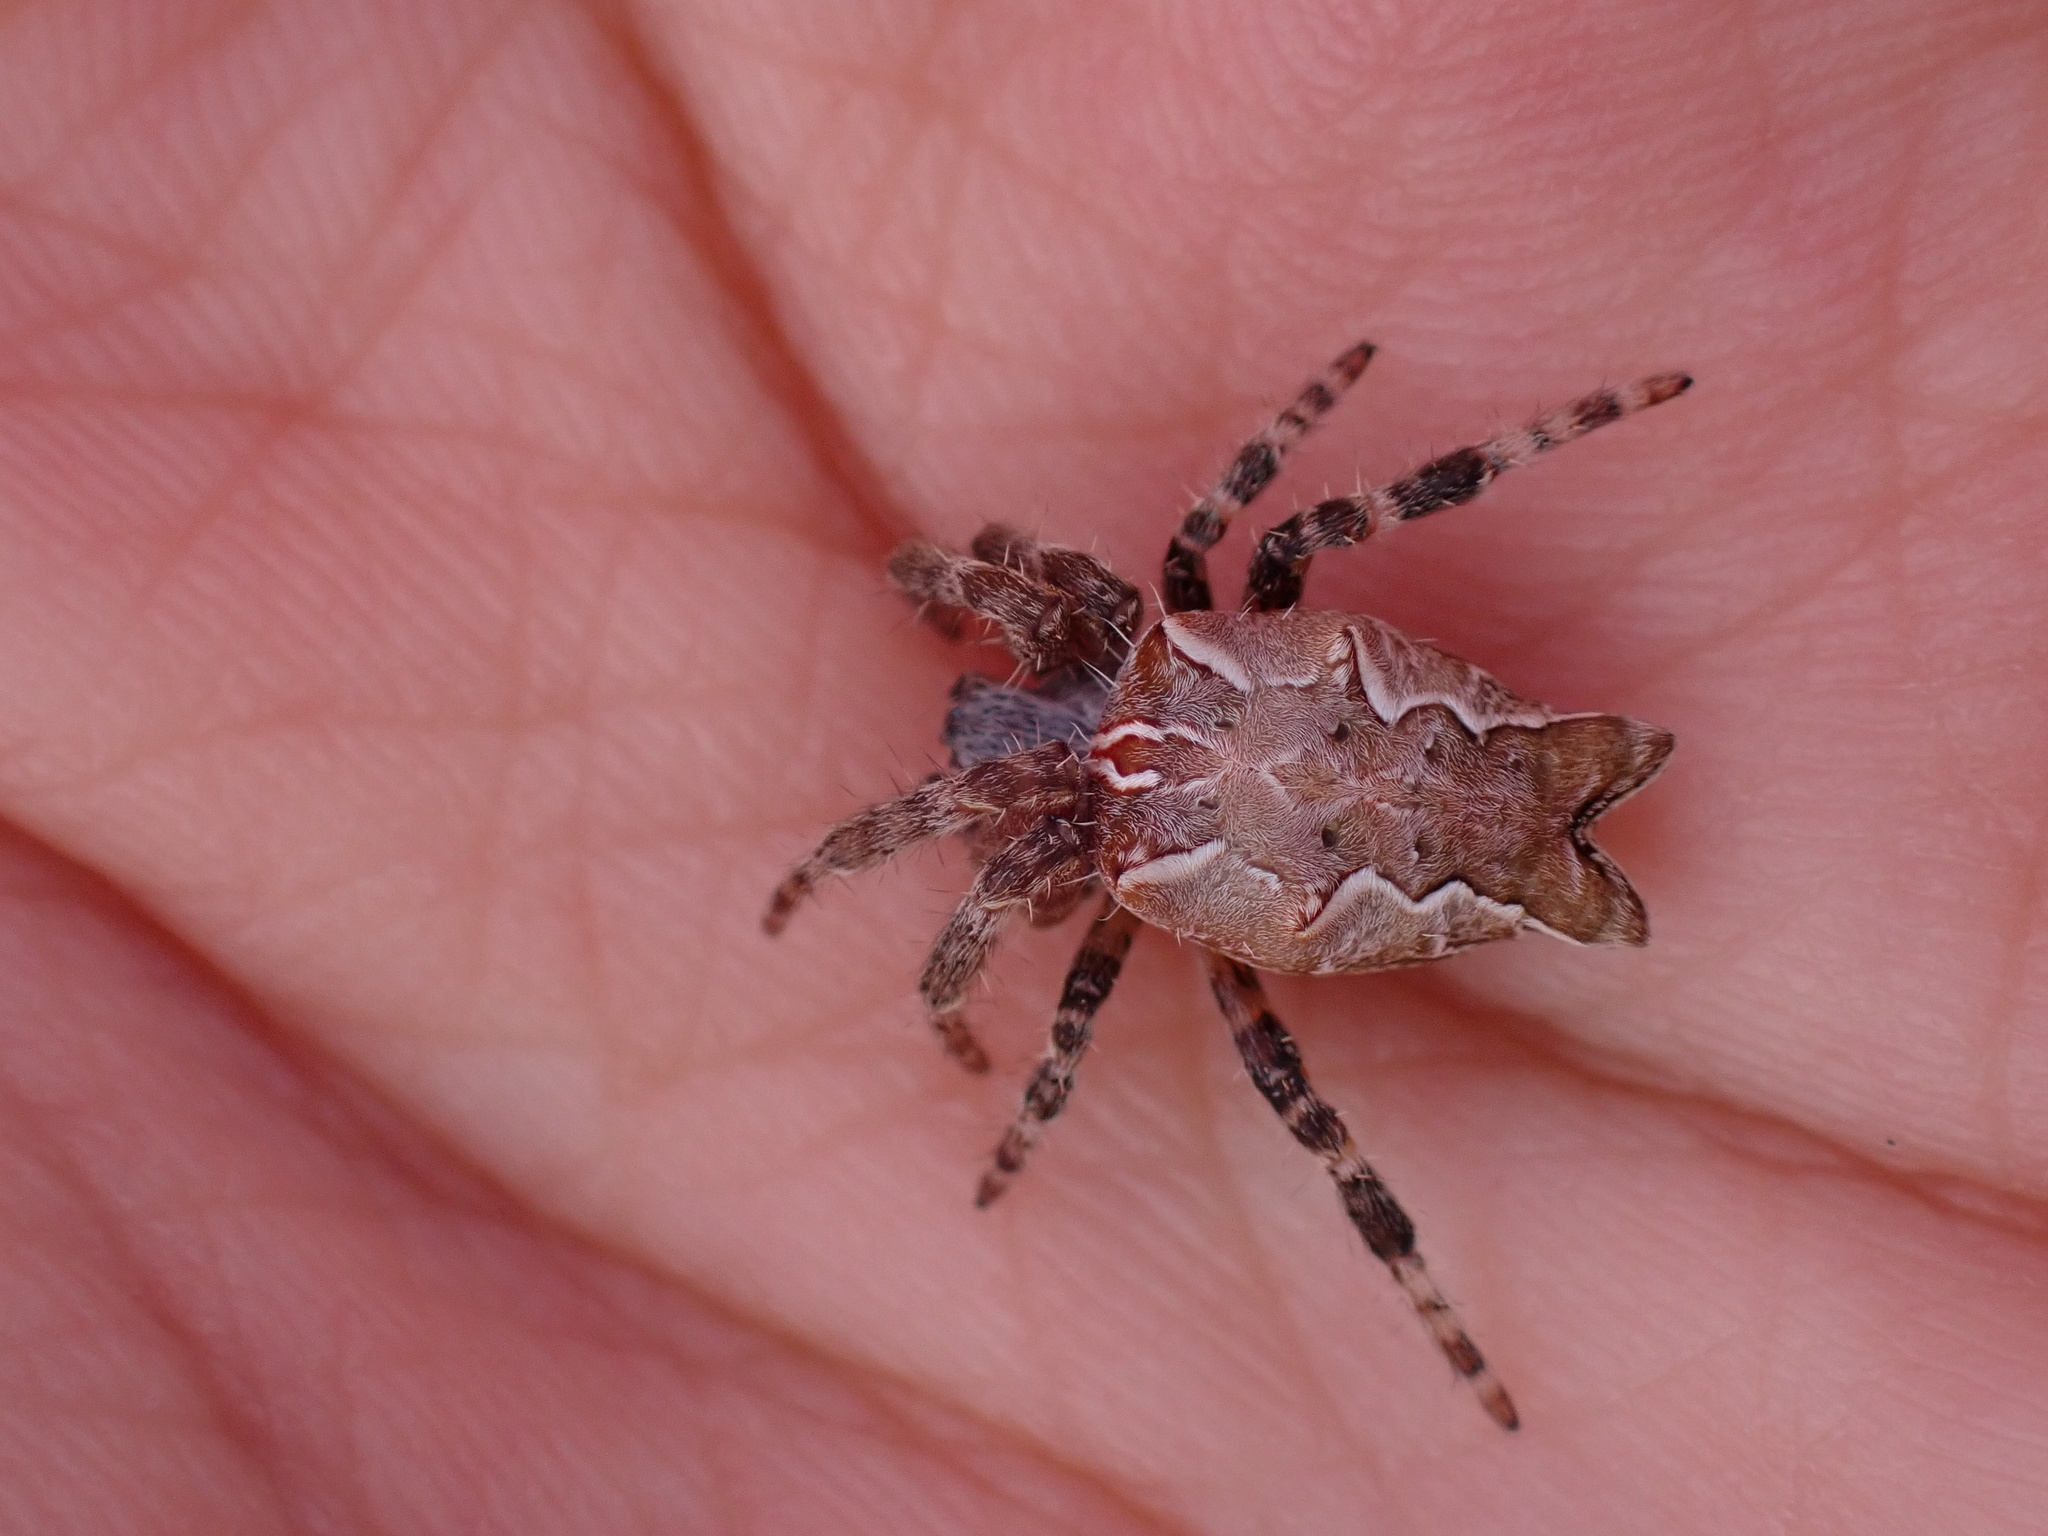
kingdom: Animalia
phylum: Arthropoda
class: Arachnida
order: Araneae
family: Araneidae
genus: Cyrtophora
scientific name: Cyrtophora citricola
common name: Orb weavers
